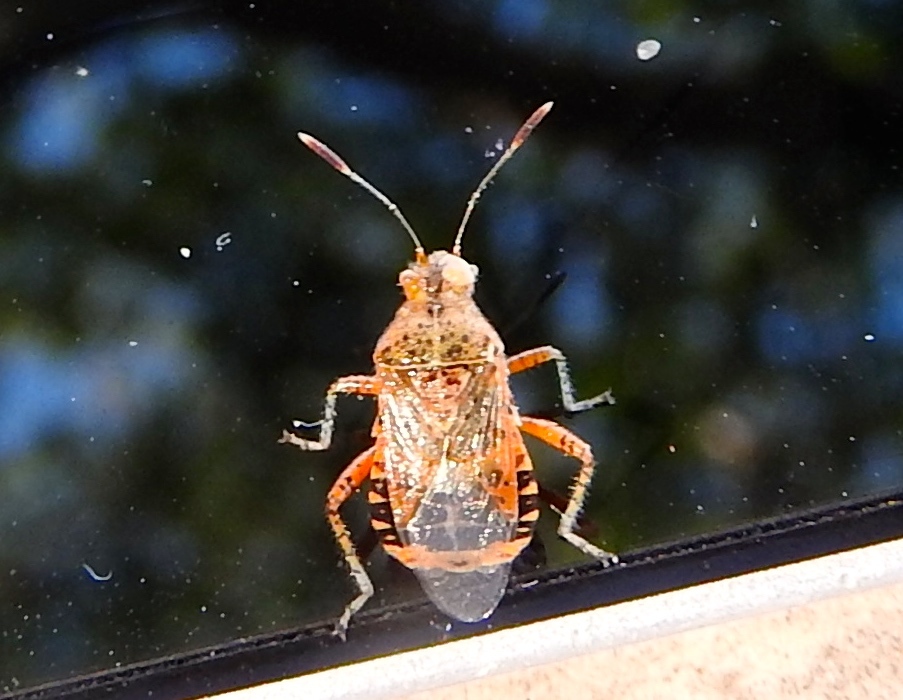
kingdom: Animalia
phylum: Arthropoda
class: Insecta
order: Hemiptera
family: Rhopalidae
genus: Niesthrea
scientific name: Niesthrea
